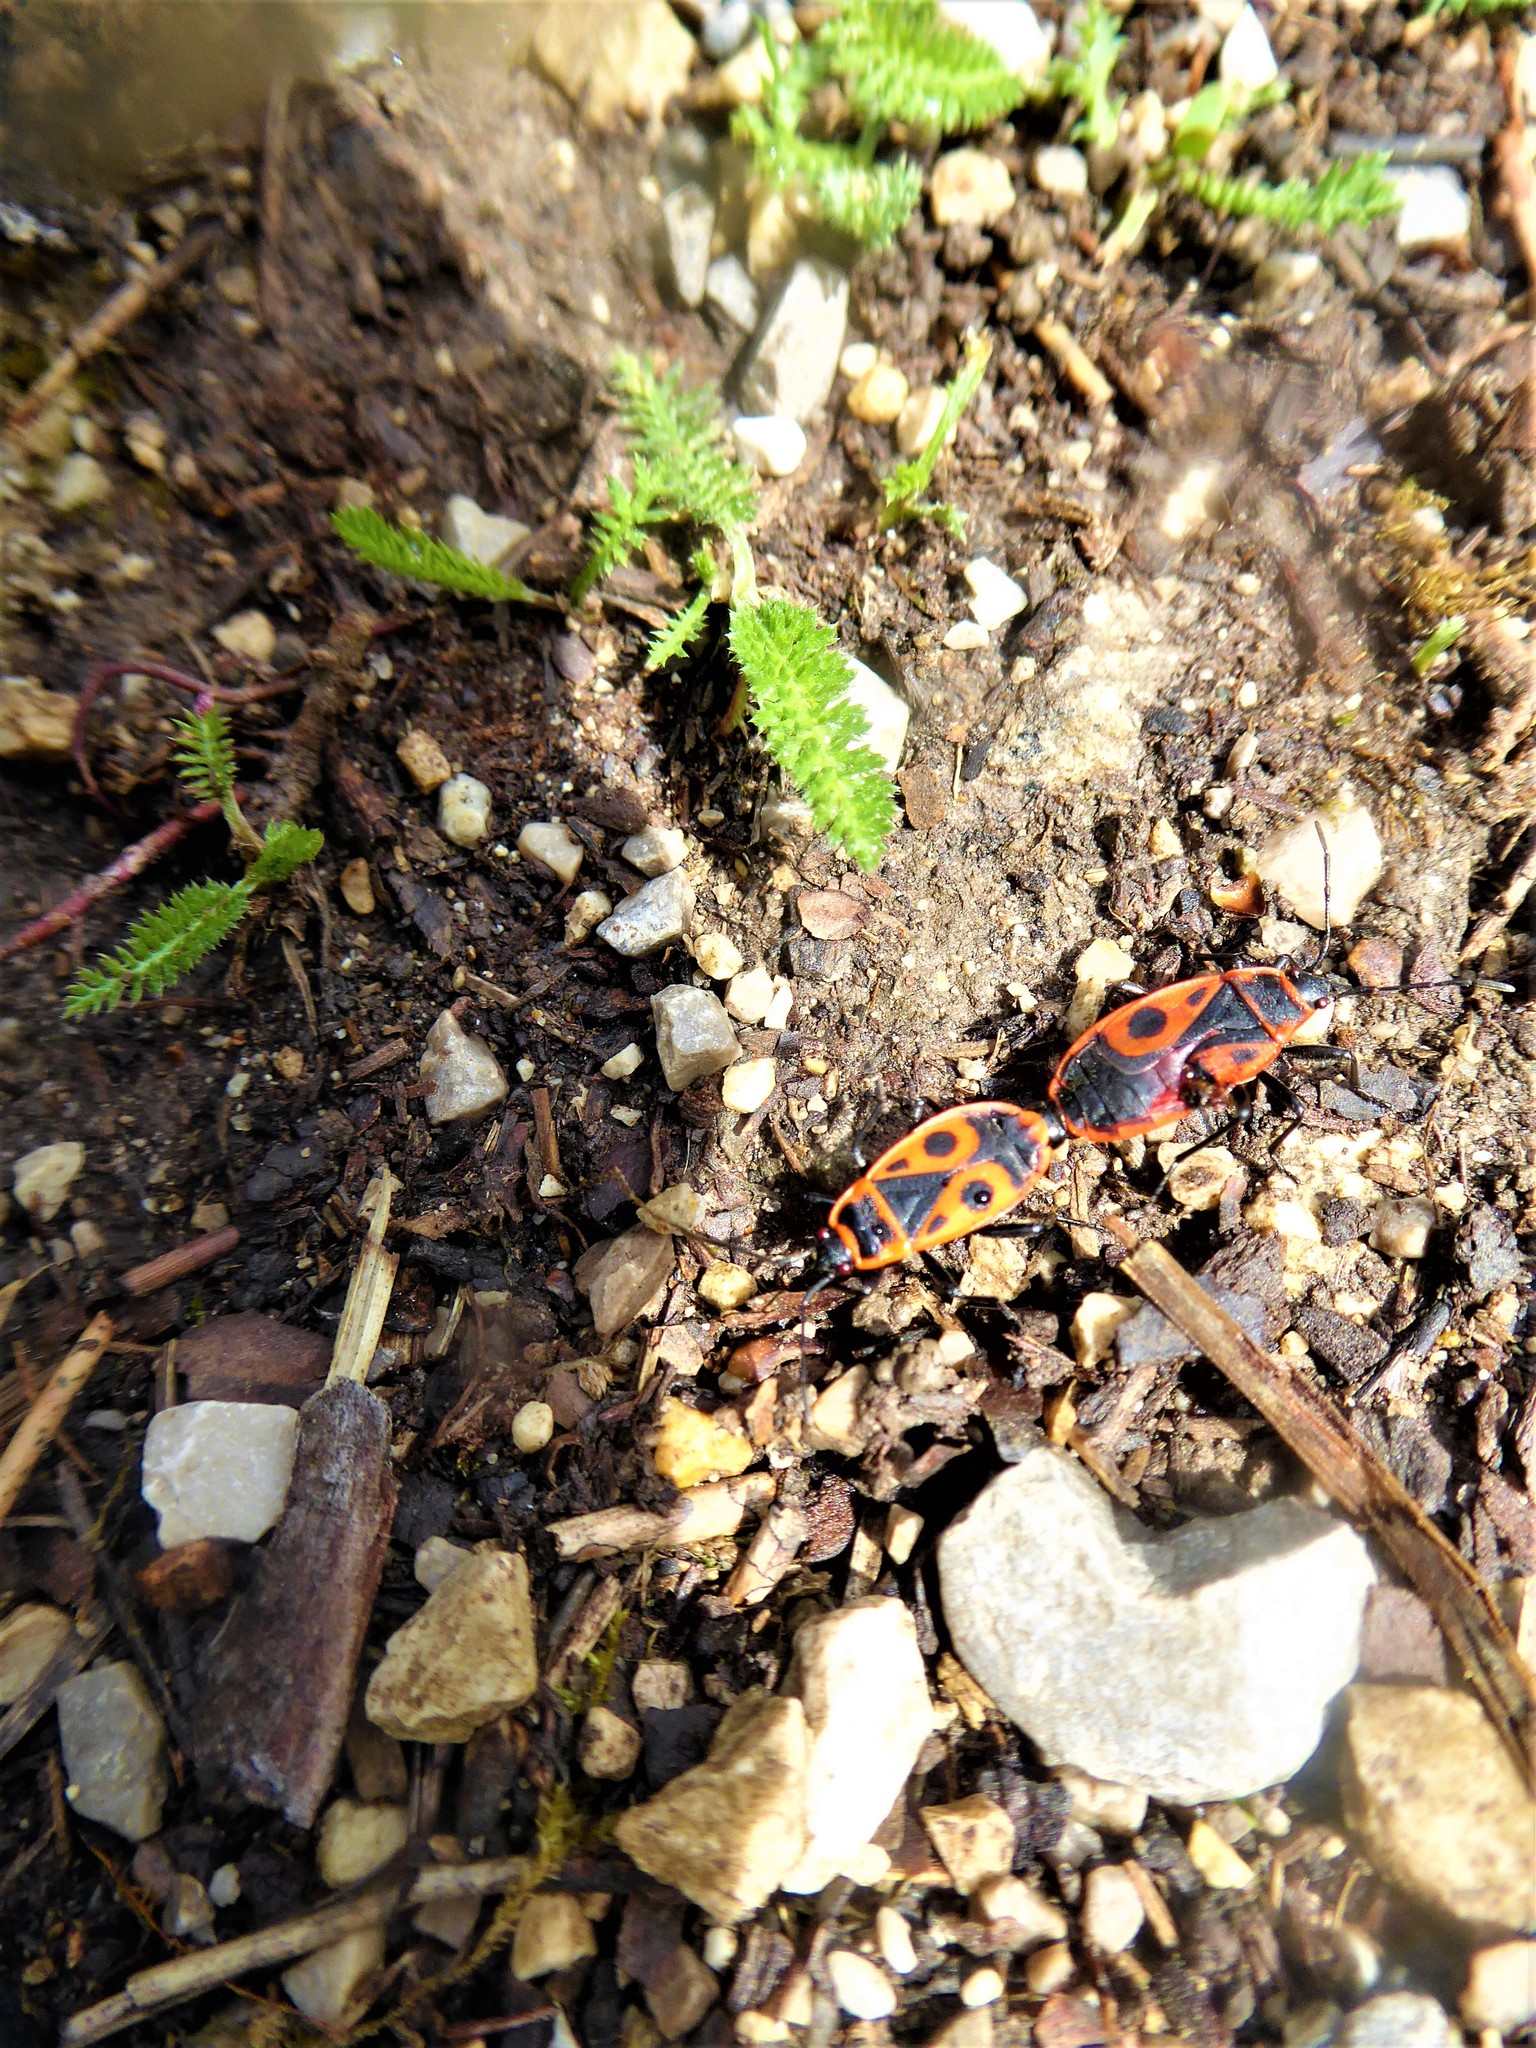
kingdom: Animalia
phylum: Arthropoda
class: Insecta
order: Hemiptera
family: Pyrrhocoridae
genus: Pyrrhocoris
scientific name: Pyrrhocoris apterus
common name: Firebug
